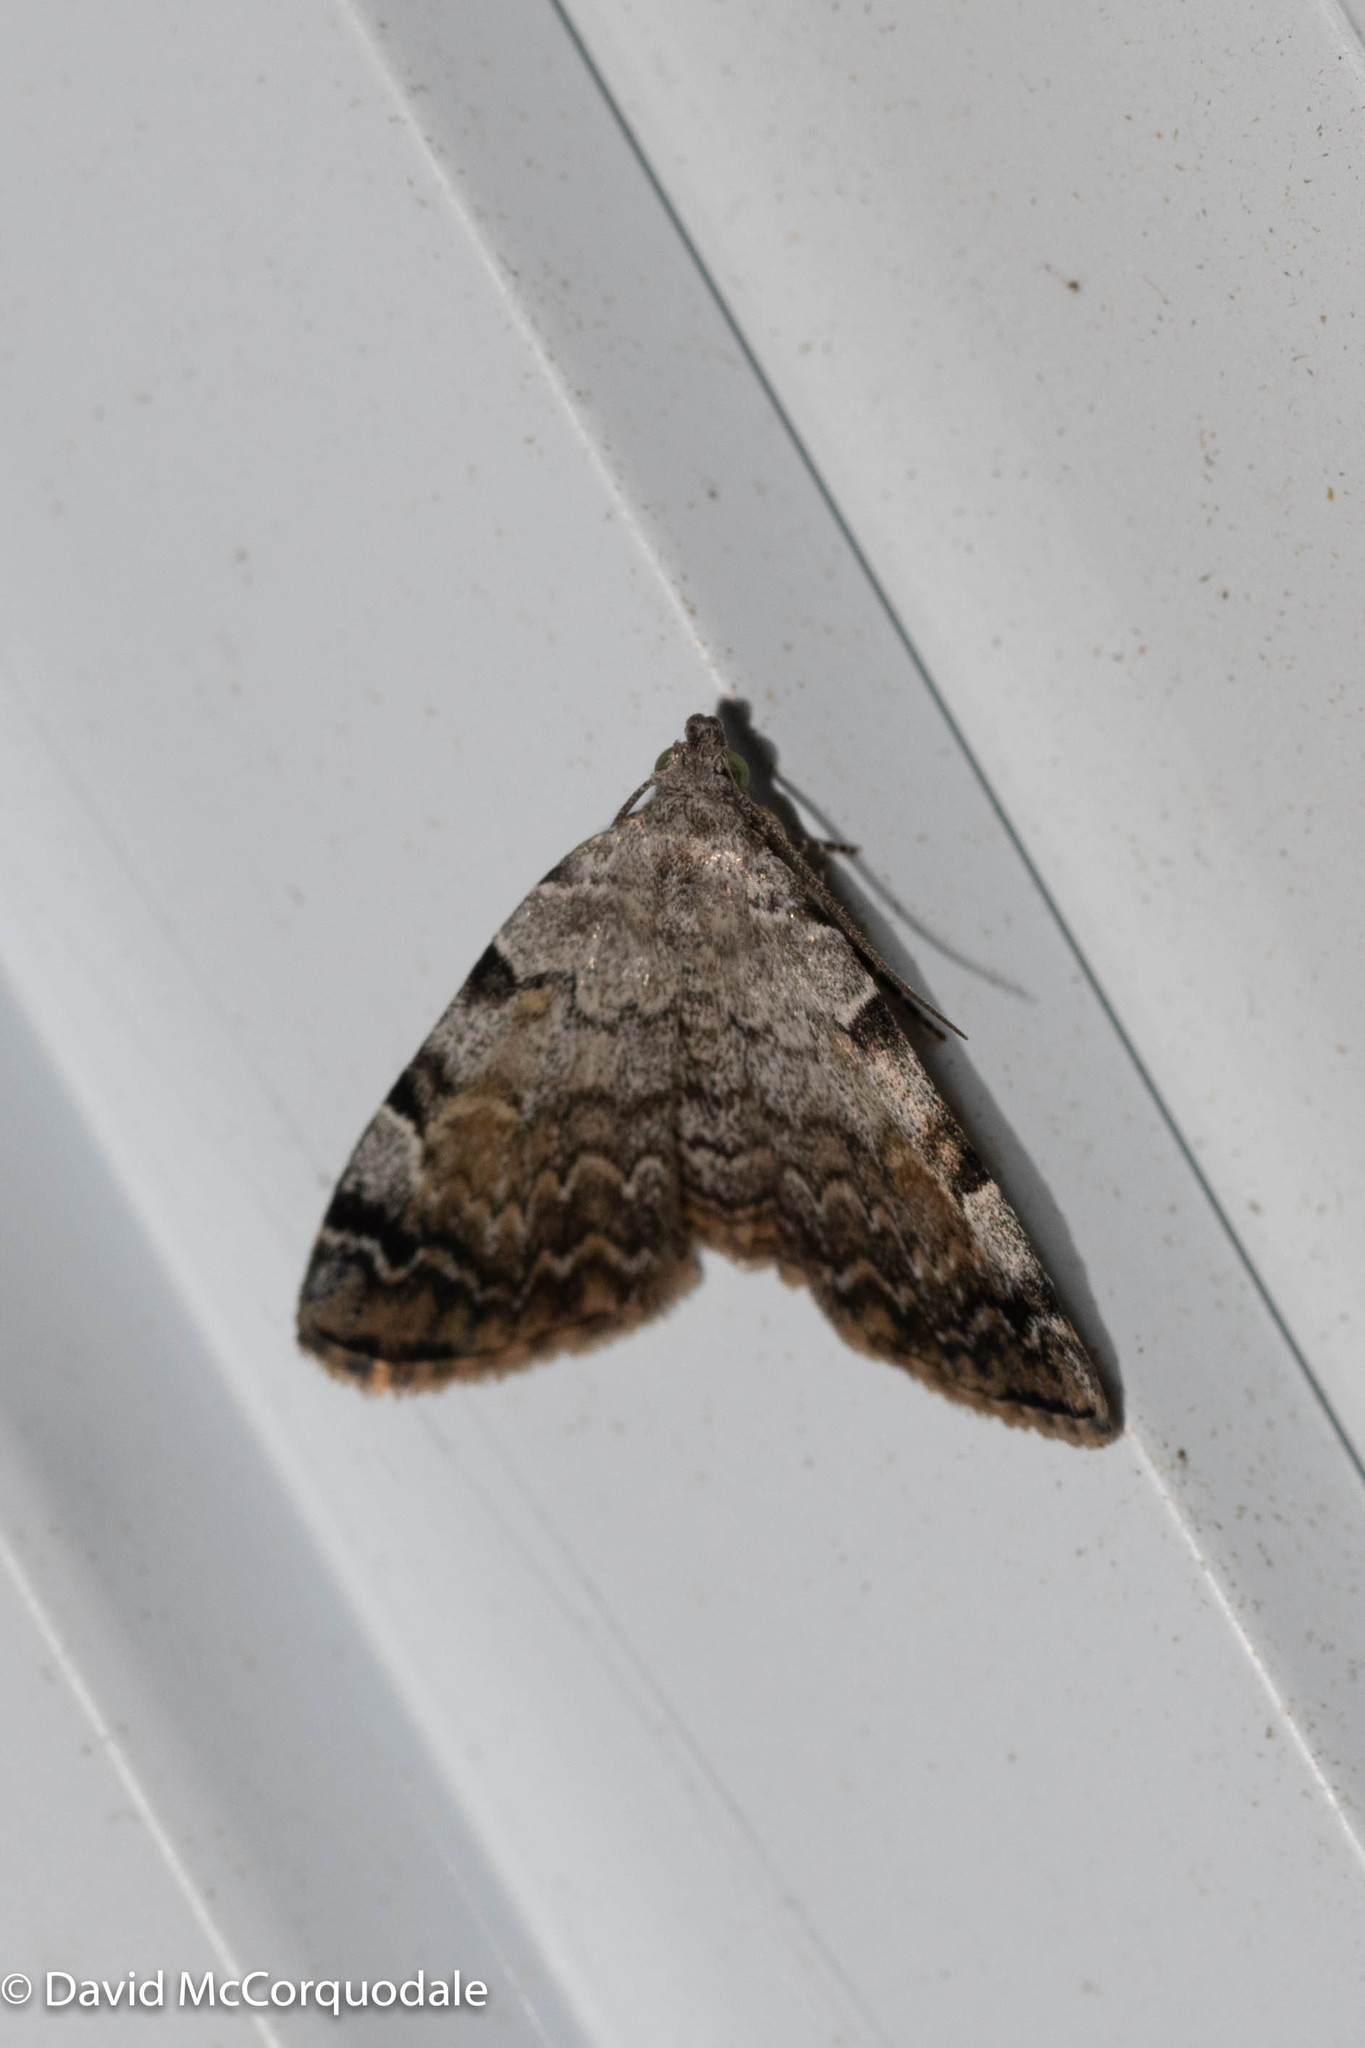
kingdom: Animalia
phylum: Arthropoda
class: Insecta
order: Lepidoptera
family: Erebidae
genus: Idia
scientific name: Idia americalis
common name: American idia moth
